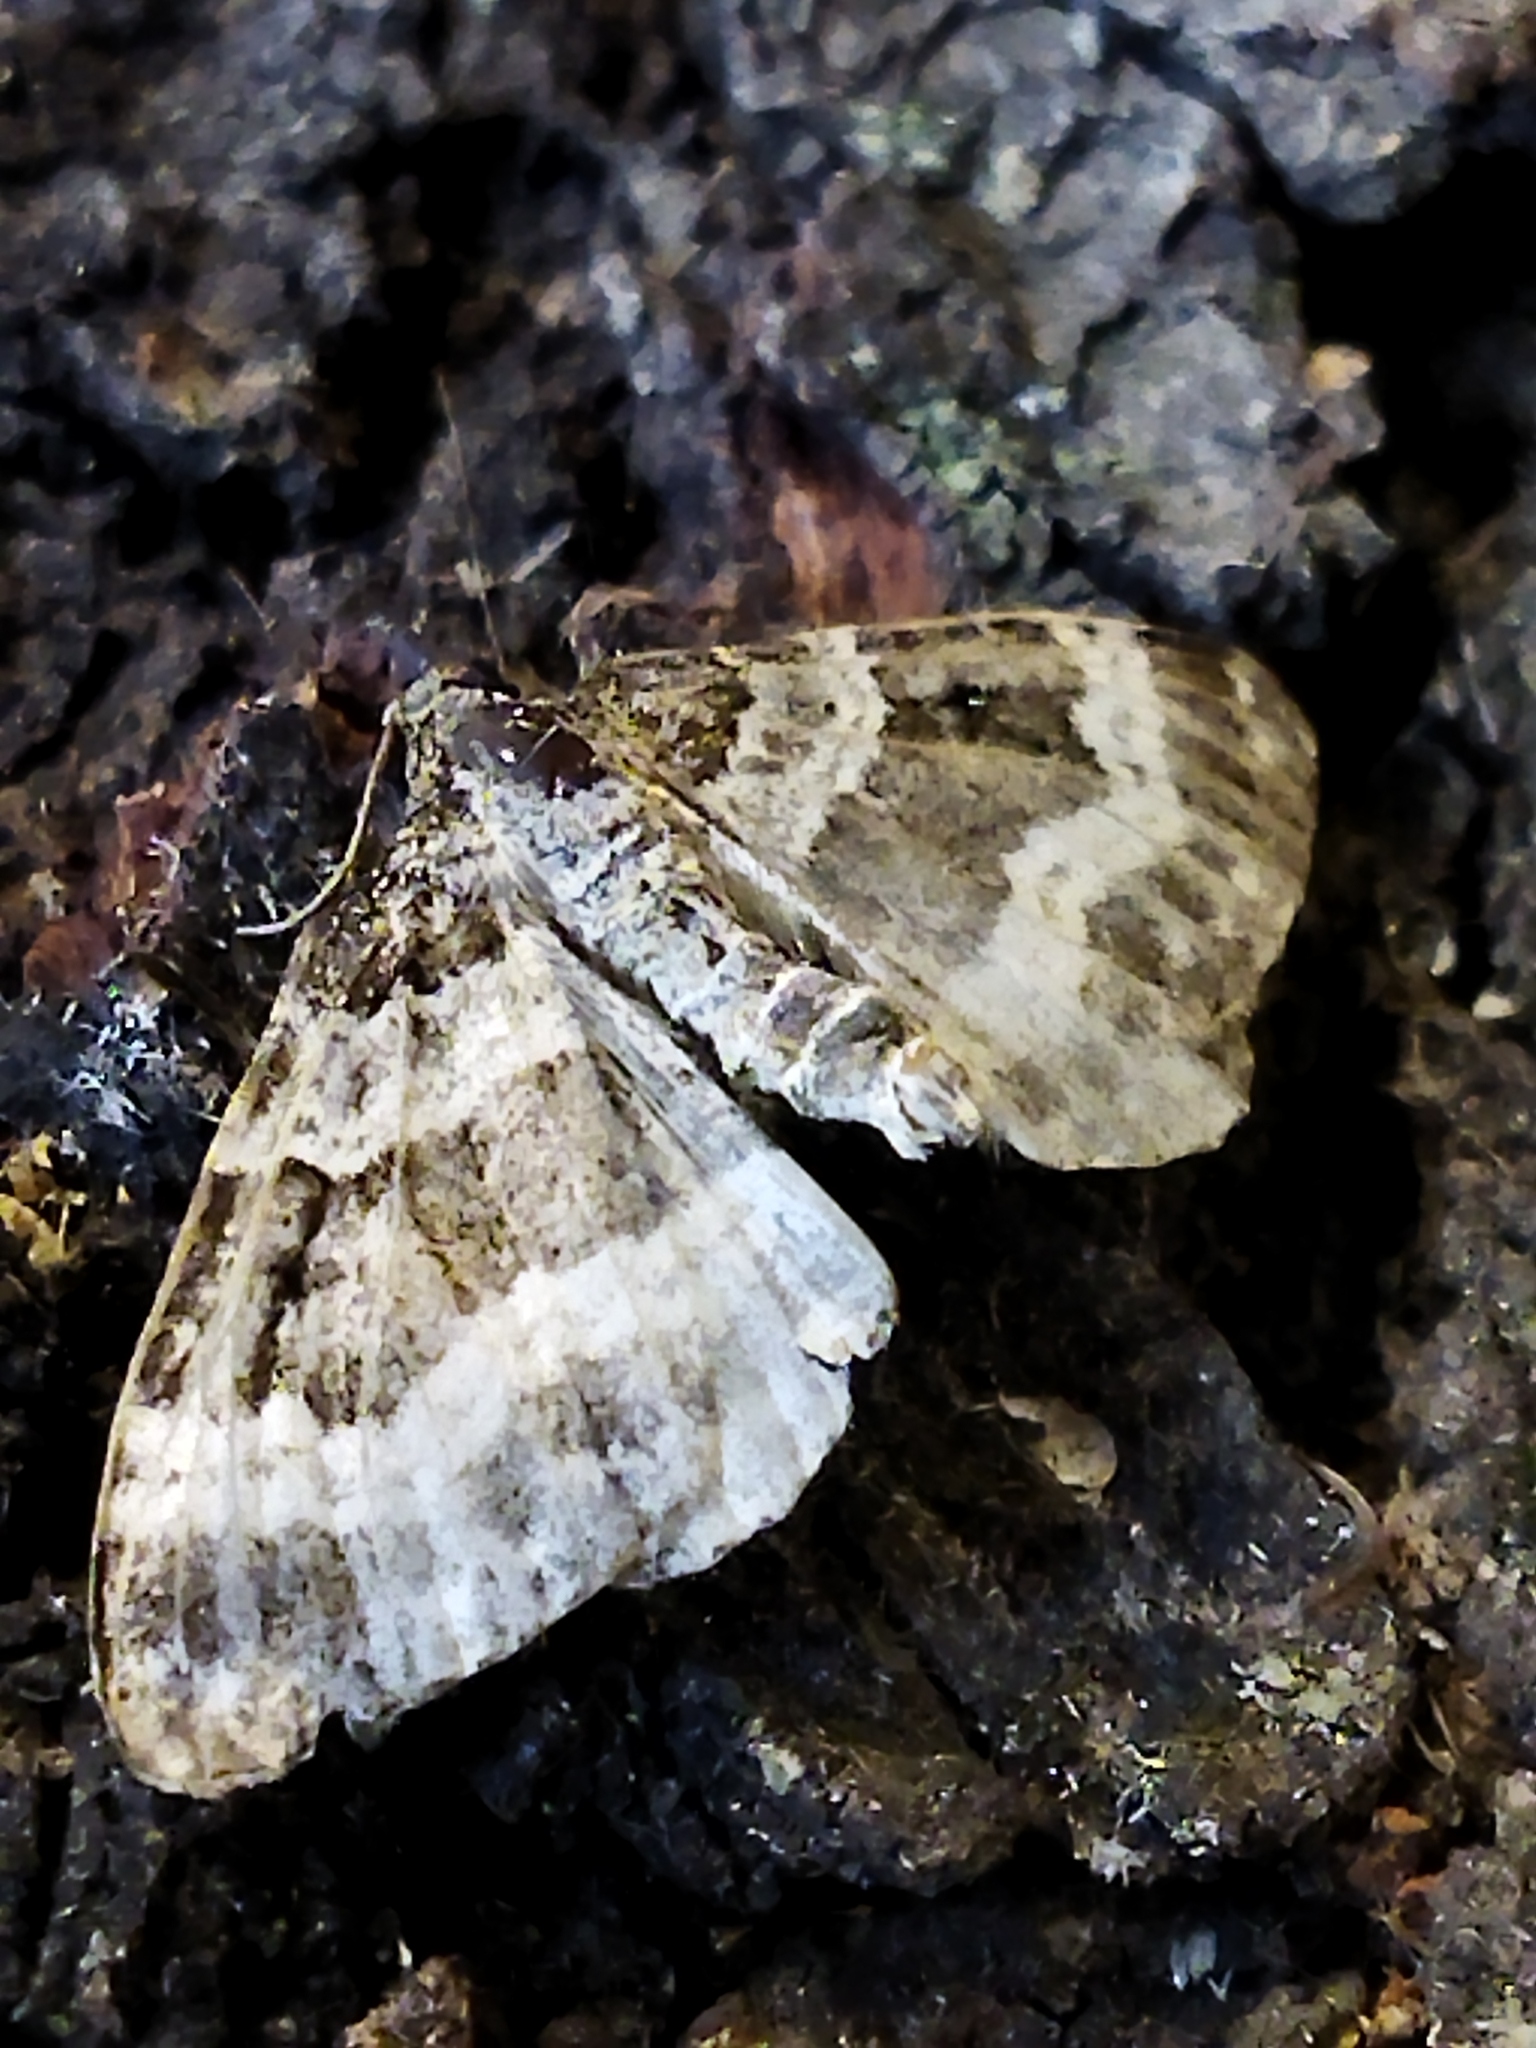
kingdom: Animalia
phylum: Arthropoda
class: Insecta
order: Lepidoptera
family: Geometridae
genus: Epirrhoe
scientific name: Epirrhoe alternata
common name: Common carpet
